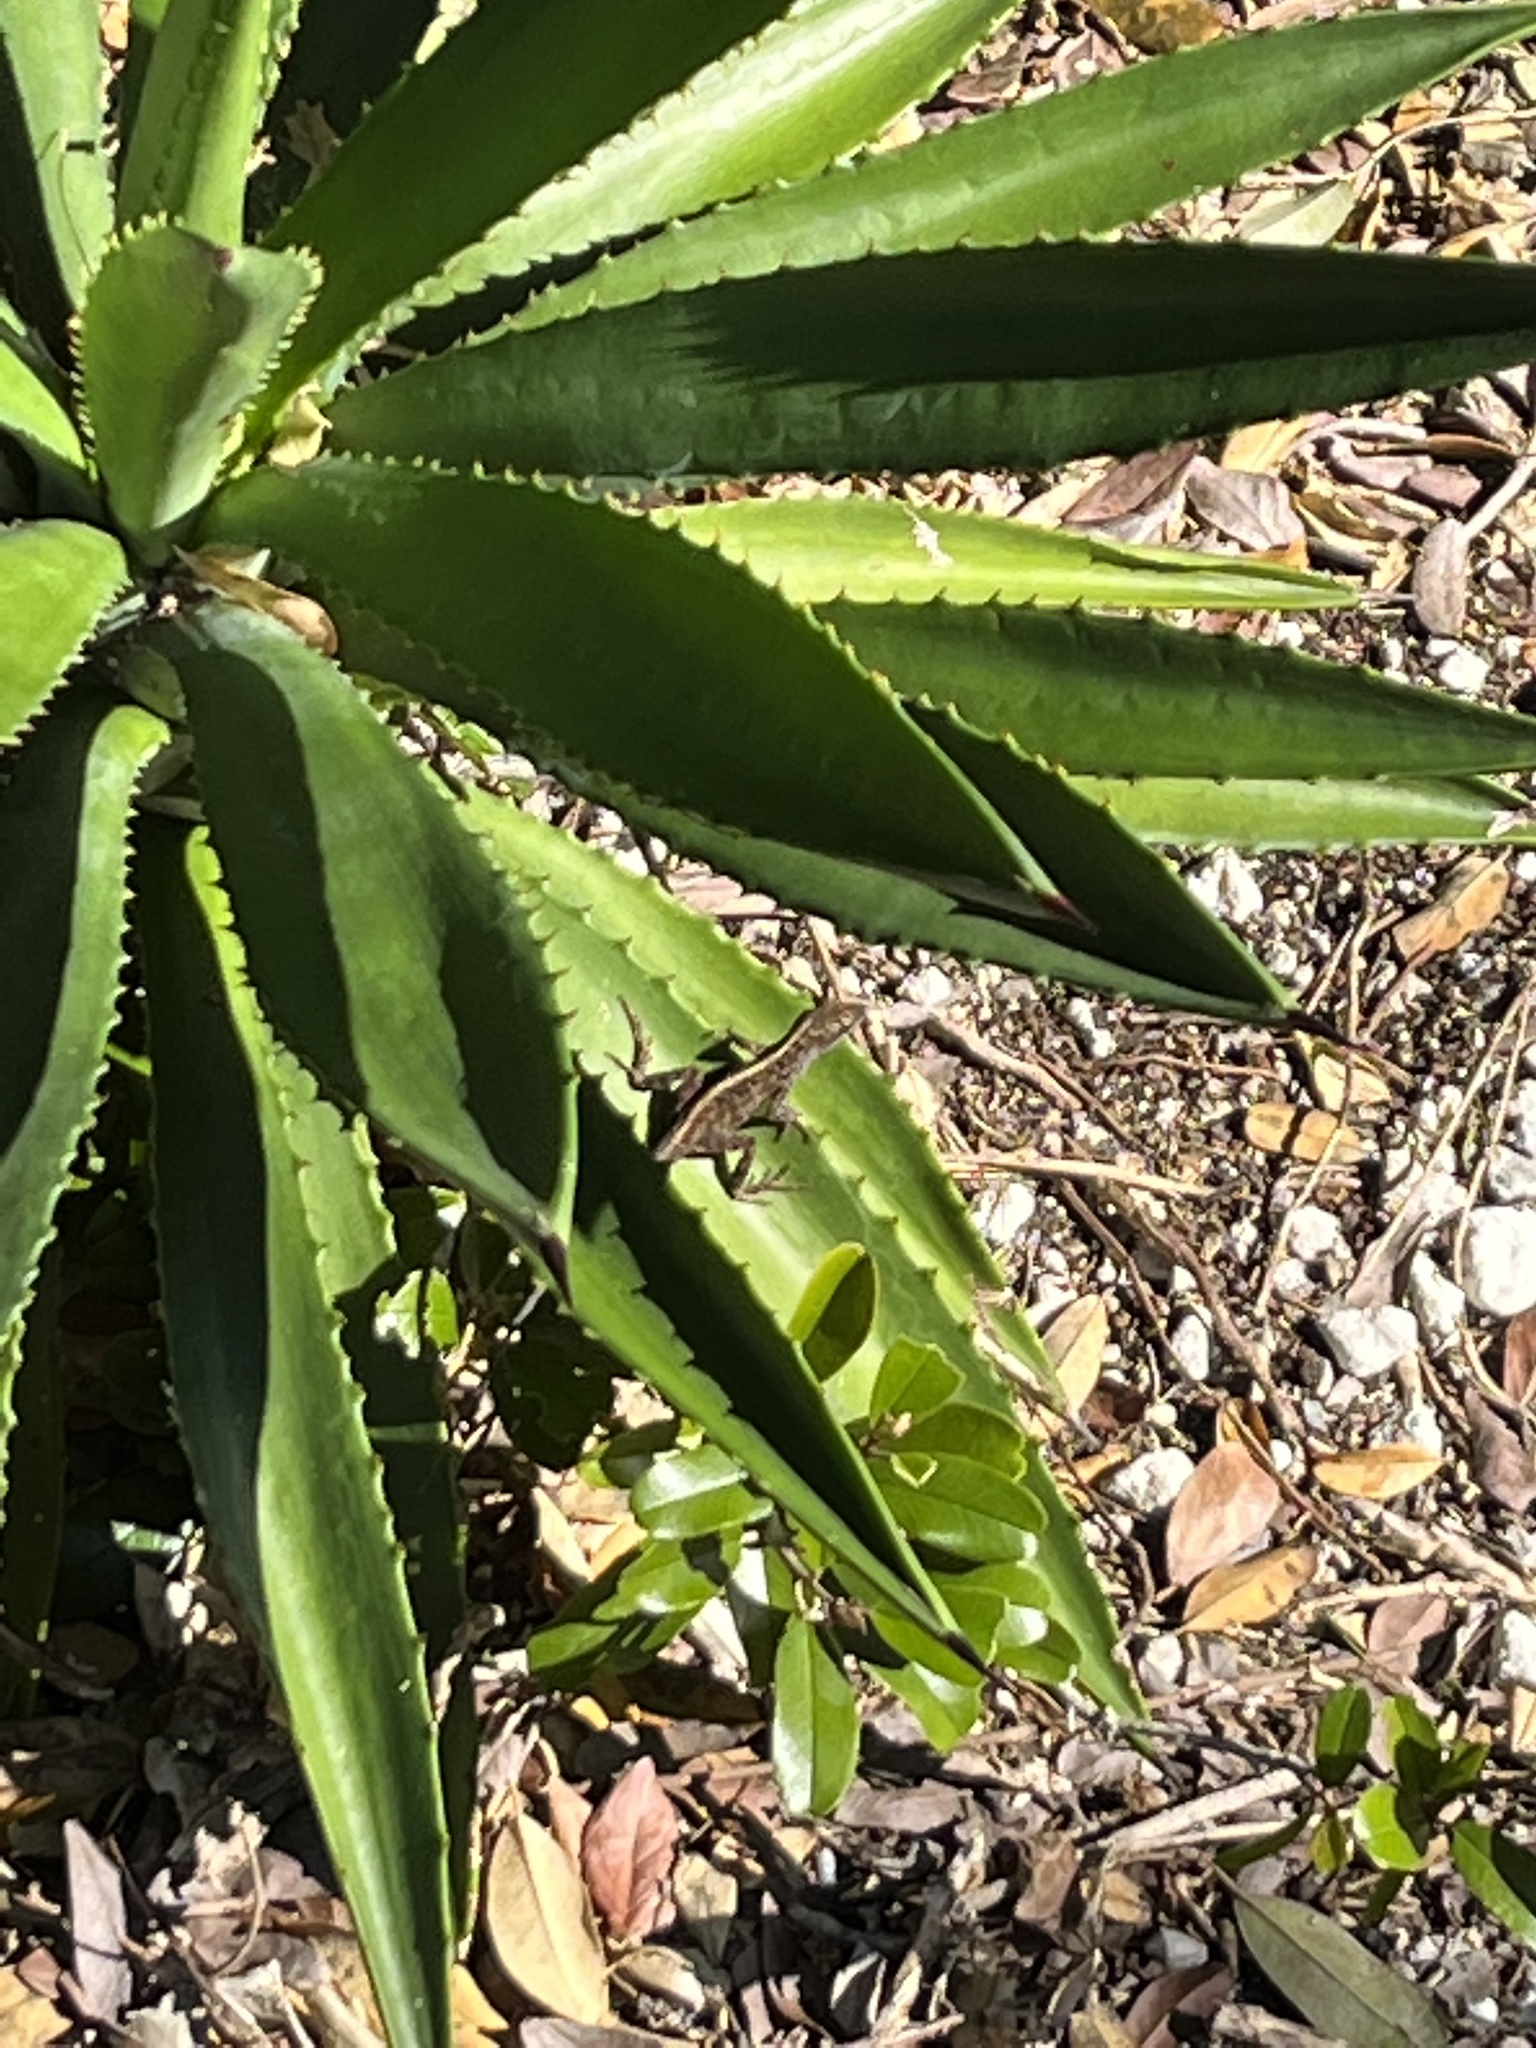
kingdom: Animalia
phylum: Chordata
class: Squamata
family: Dactyloidae
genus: Anolis
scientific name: Anolis sagrei
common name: Brown anole
